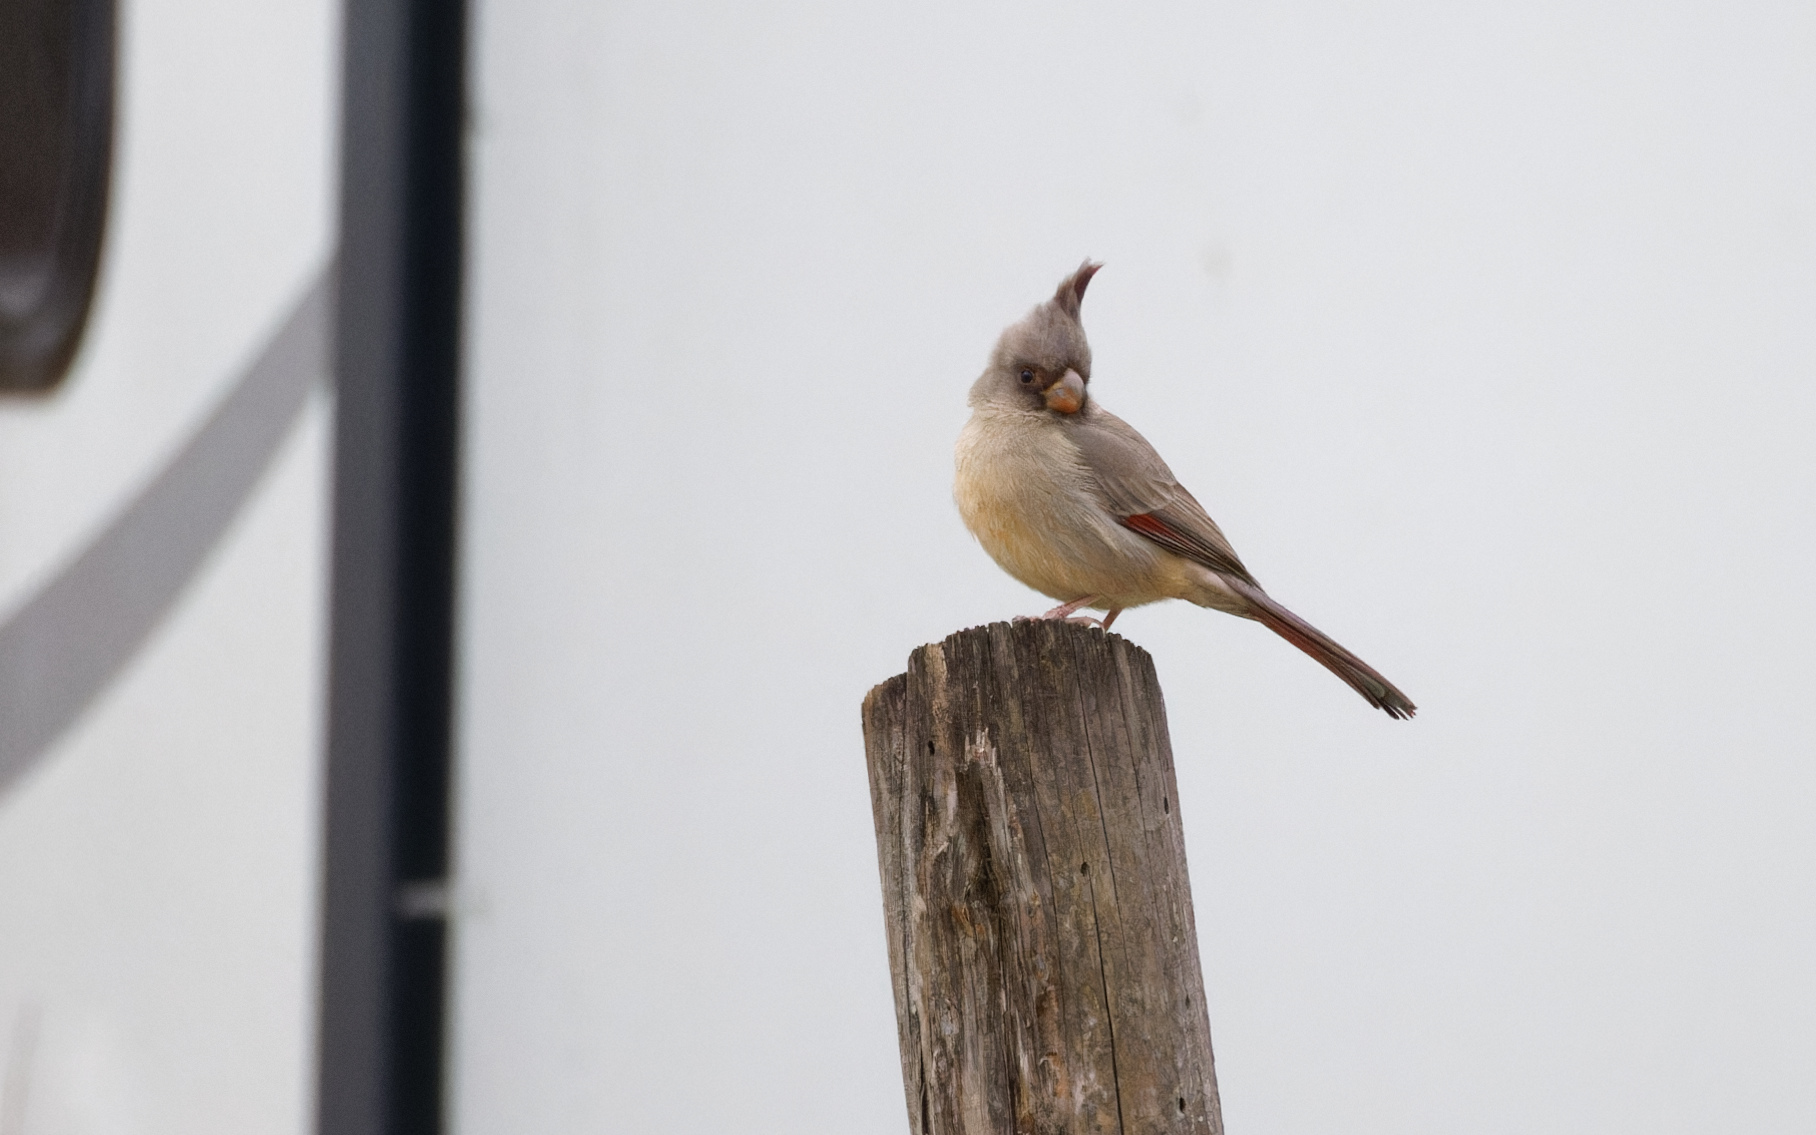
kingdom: Animalia
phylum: Chordata
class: Aves
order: Passeriformes
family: Cardinalidae
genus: Cardinalis
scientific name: Cardinalis sinuatus
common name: Pyrrhuloxia
